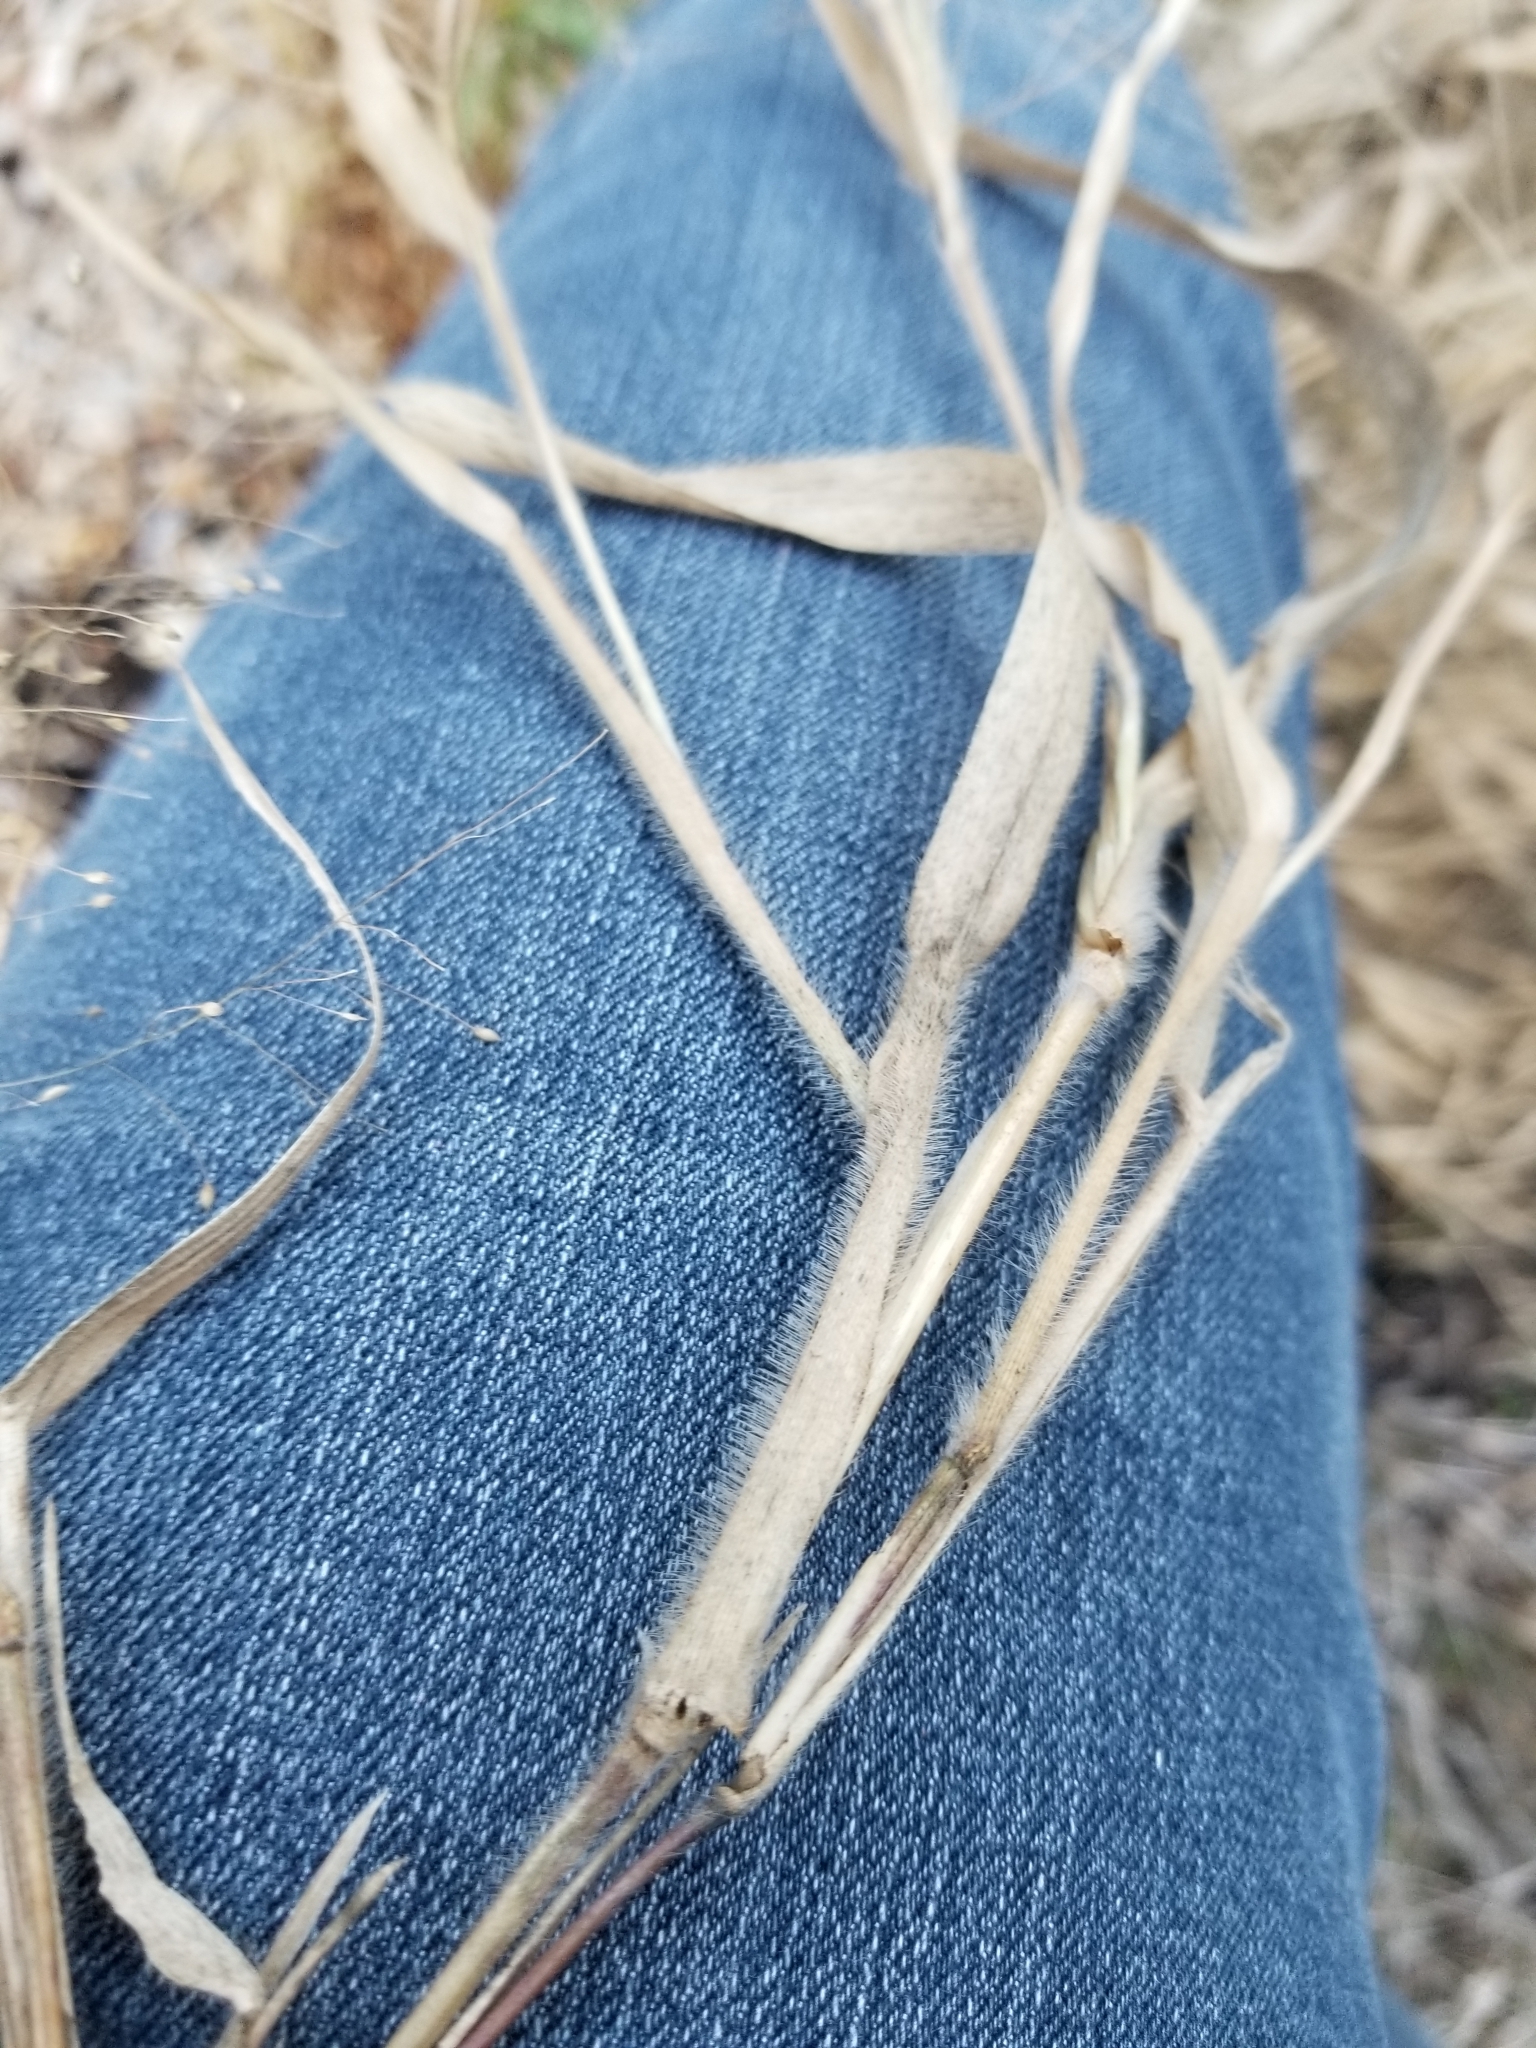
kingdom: Plantae
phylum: Tracheophyta
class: Liliopsida
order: Poales
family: Poaceae
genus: Panicum
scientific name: Panicum capillare
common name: Witch-grass
